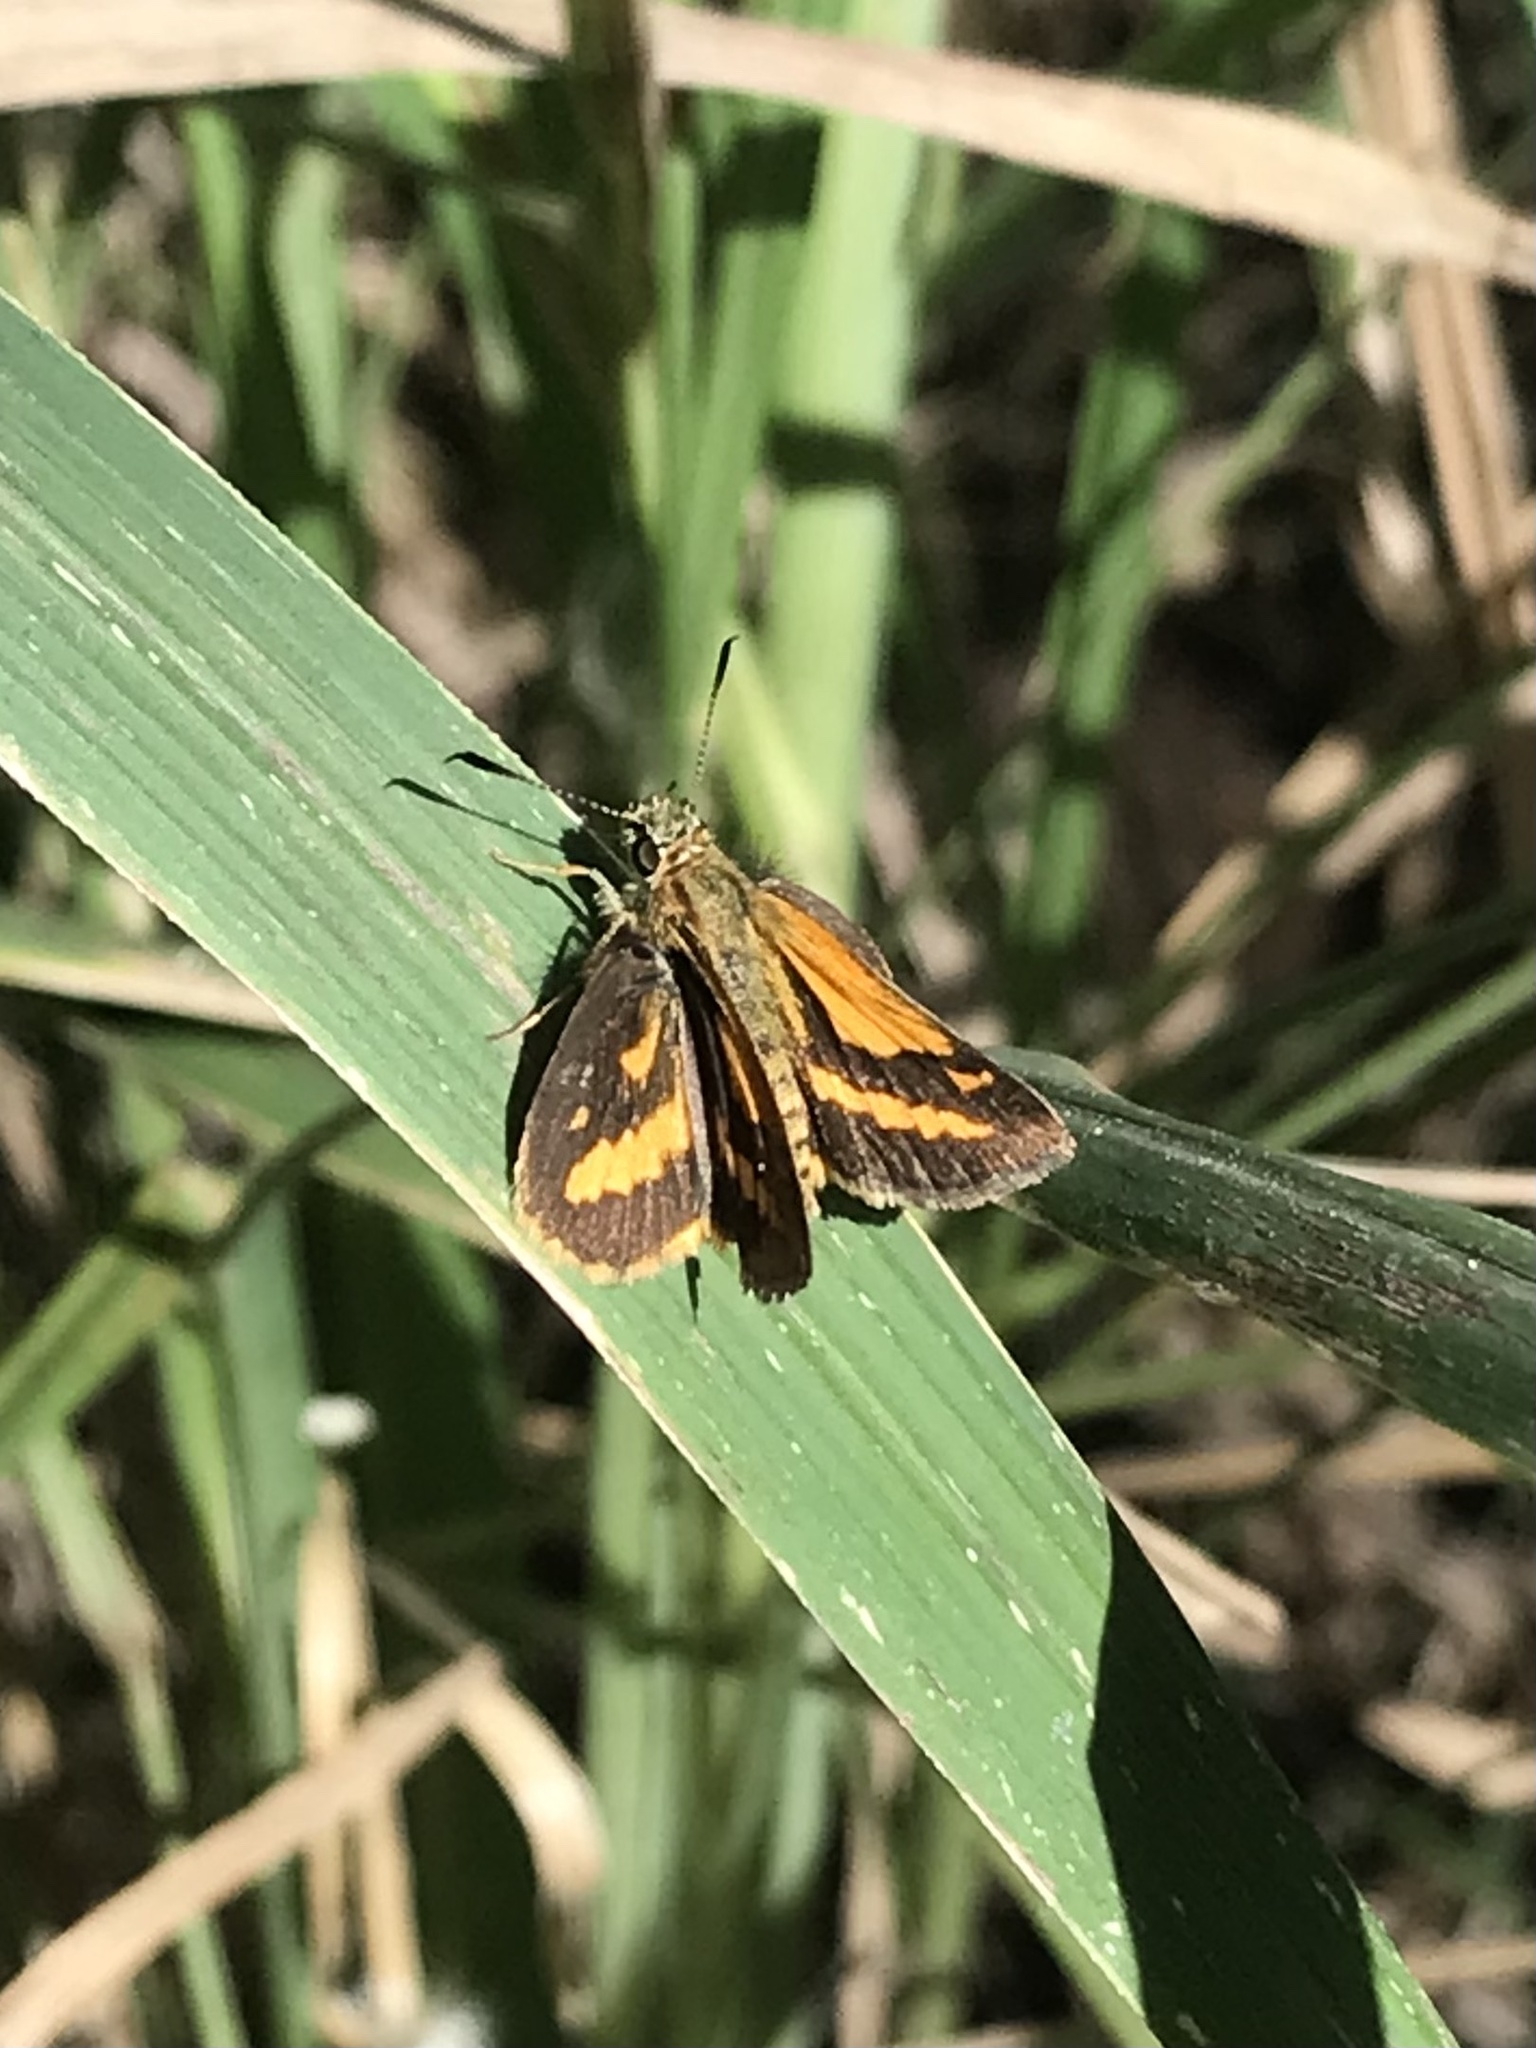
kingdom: Animalia
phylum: Arthropoda
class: Insecta
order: Lepidoptera
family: Hesperiidae
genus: Suniana
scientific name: Suniana sunias
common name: Wide-brand grass-dart
